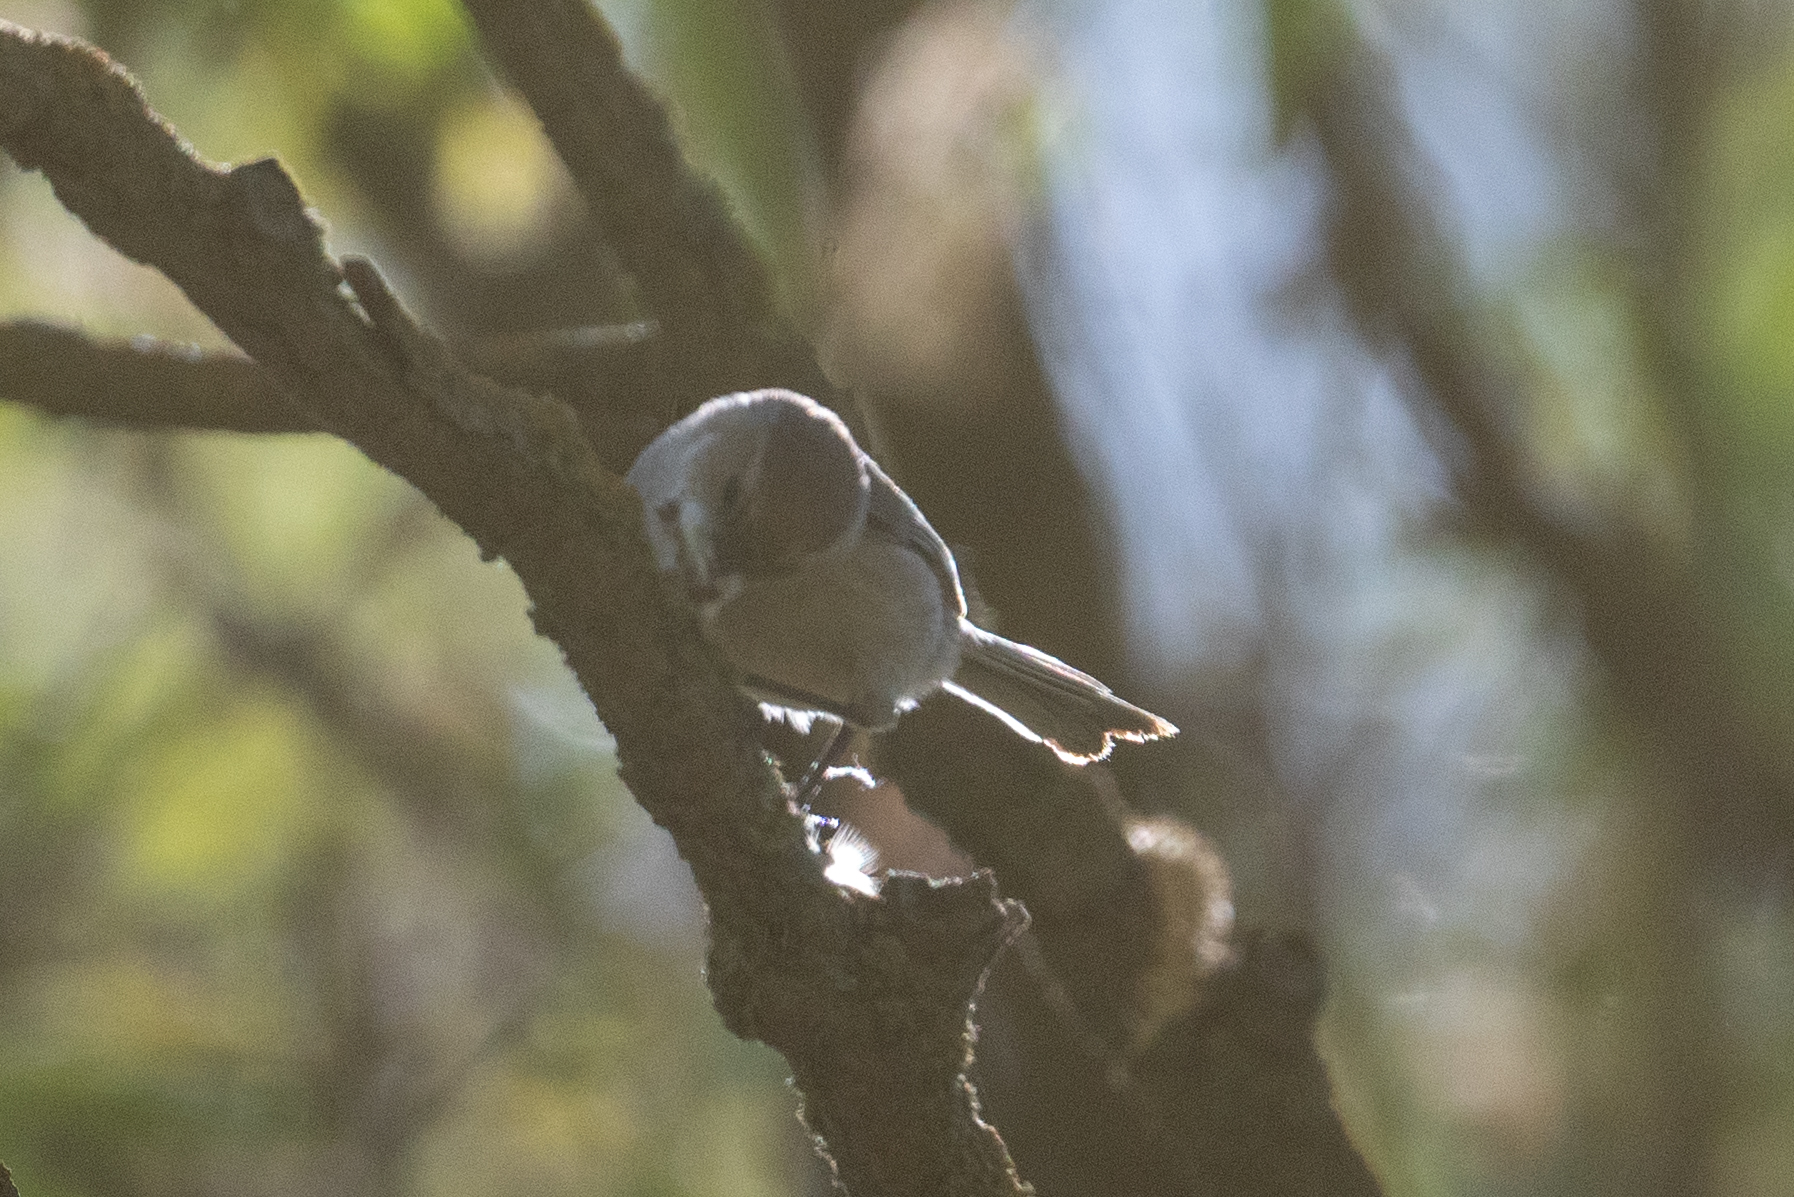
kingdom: Animalia
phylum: Chordata
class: Aves
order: Passeriformes
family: Aegithalidae
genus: Psaltriparus
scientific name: Psaltriparus minimus
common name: American bushtit
